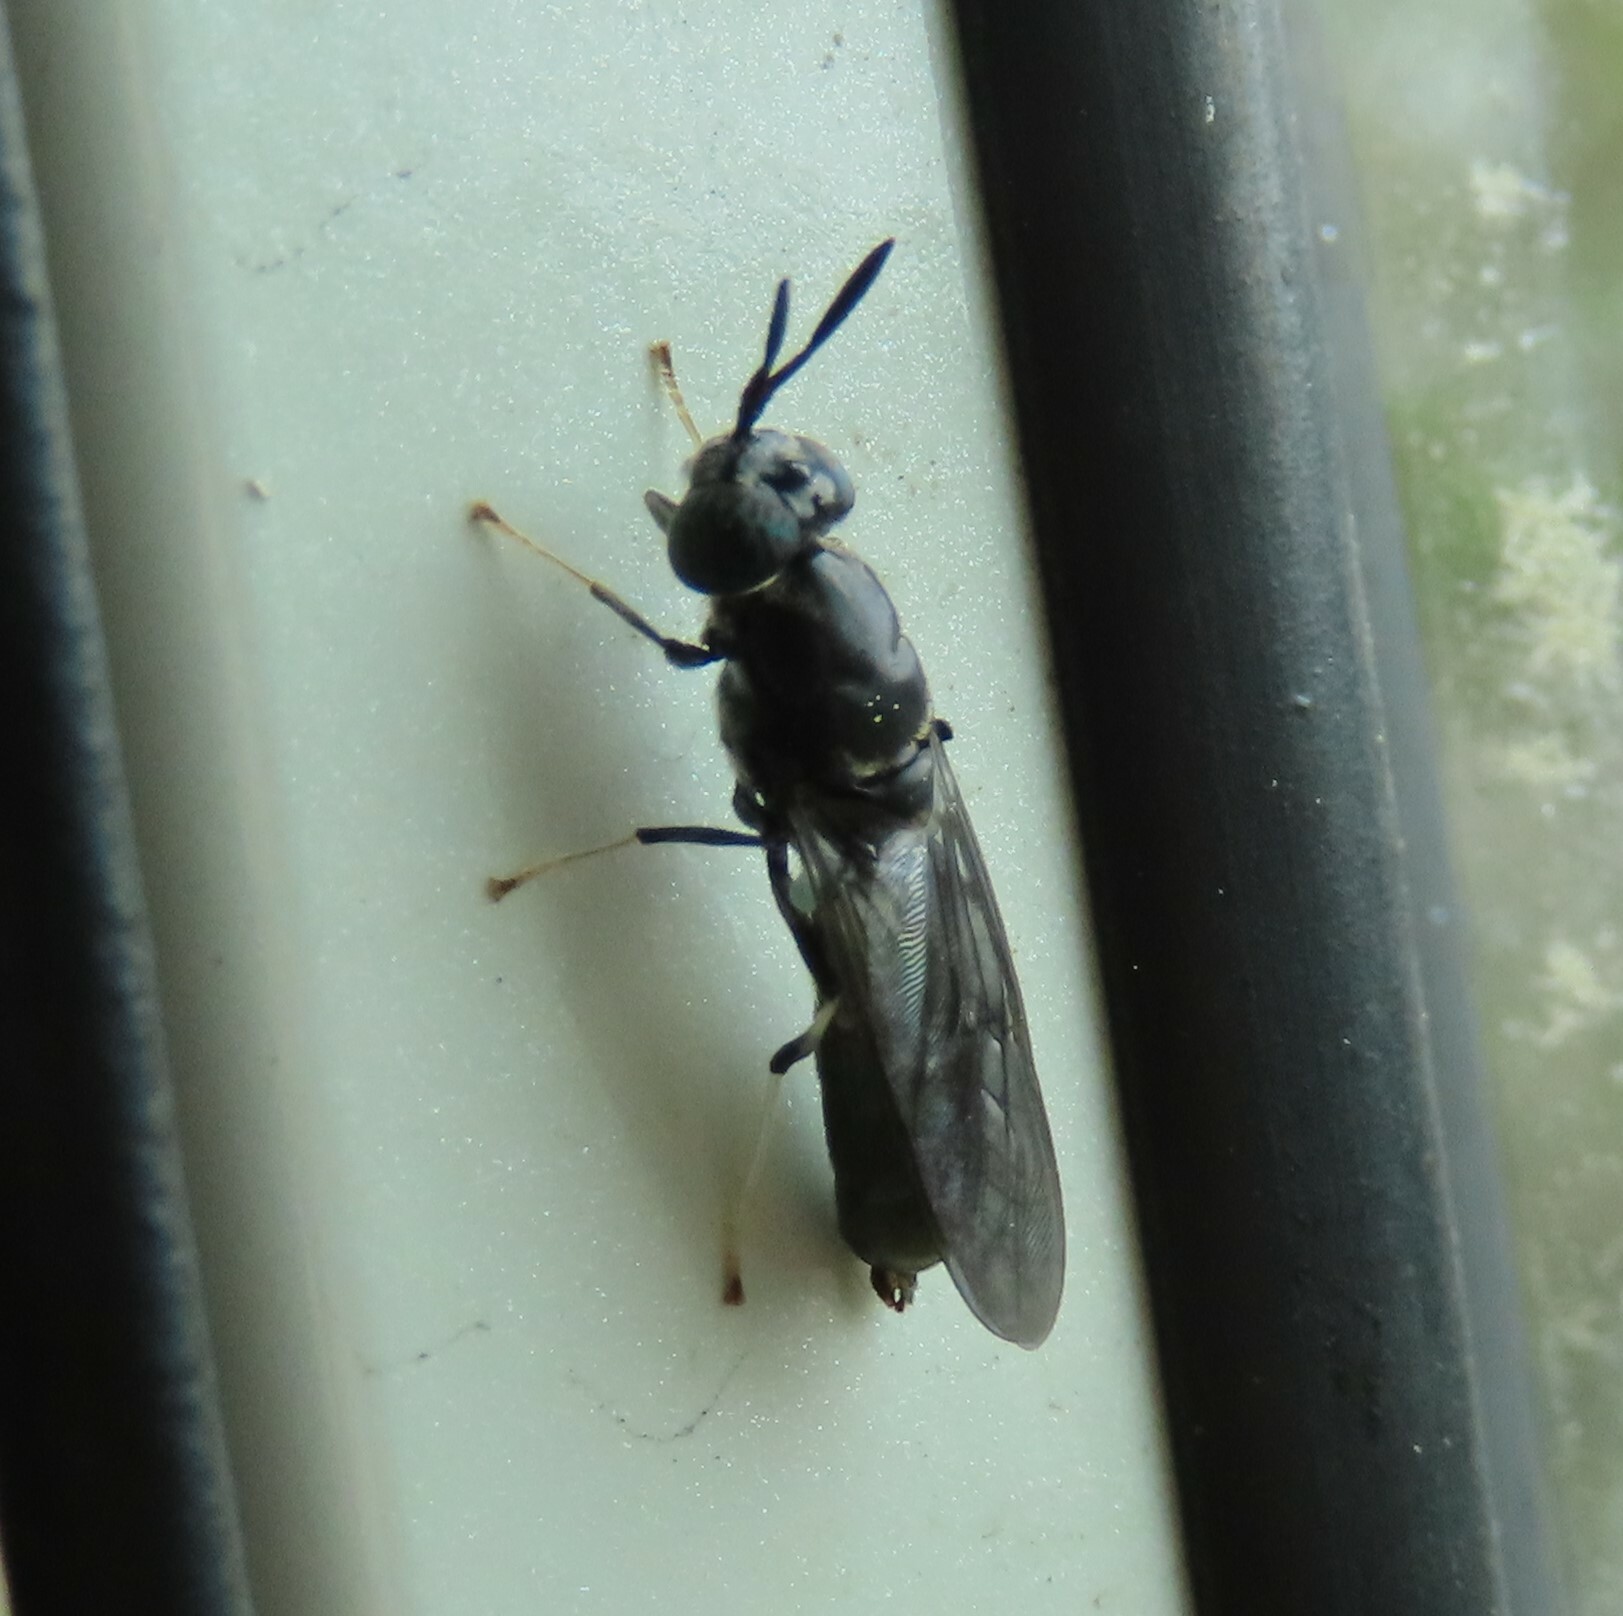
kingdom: Animalia
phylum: Arthropoda
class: Insecta
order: Diptera
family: Stratiomyidae
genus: Hermetia
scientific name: Hermetia illucens
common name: Black soldier fly
